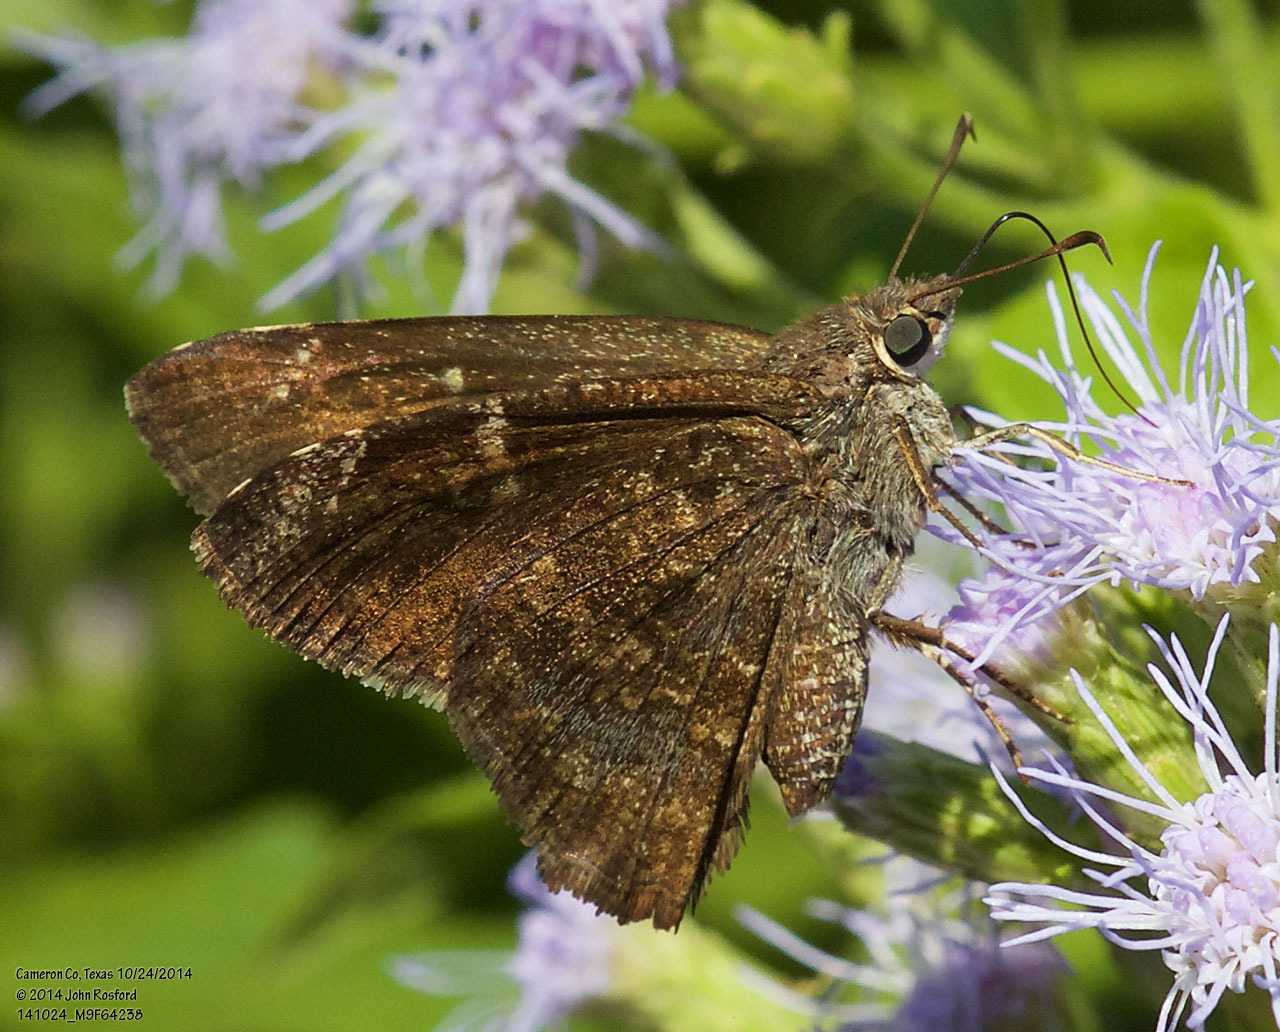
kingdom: Animalia
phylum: Arthropoda
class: Insecta
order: Lepidoptera
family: Hesperiidae
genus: Caicella
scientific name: Caicella calchas
